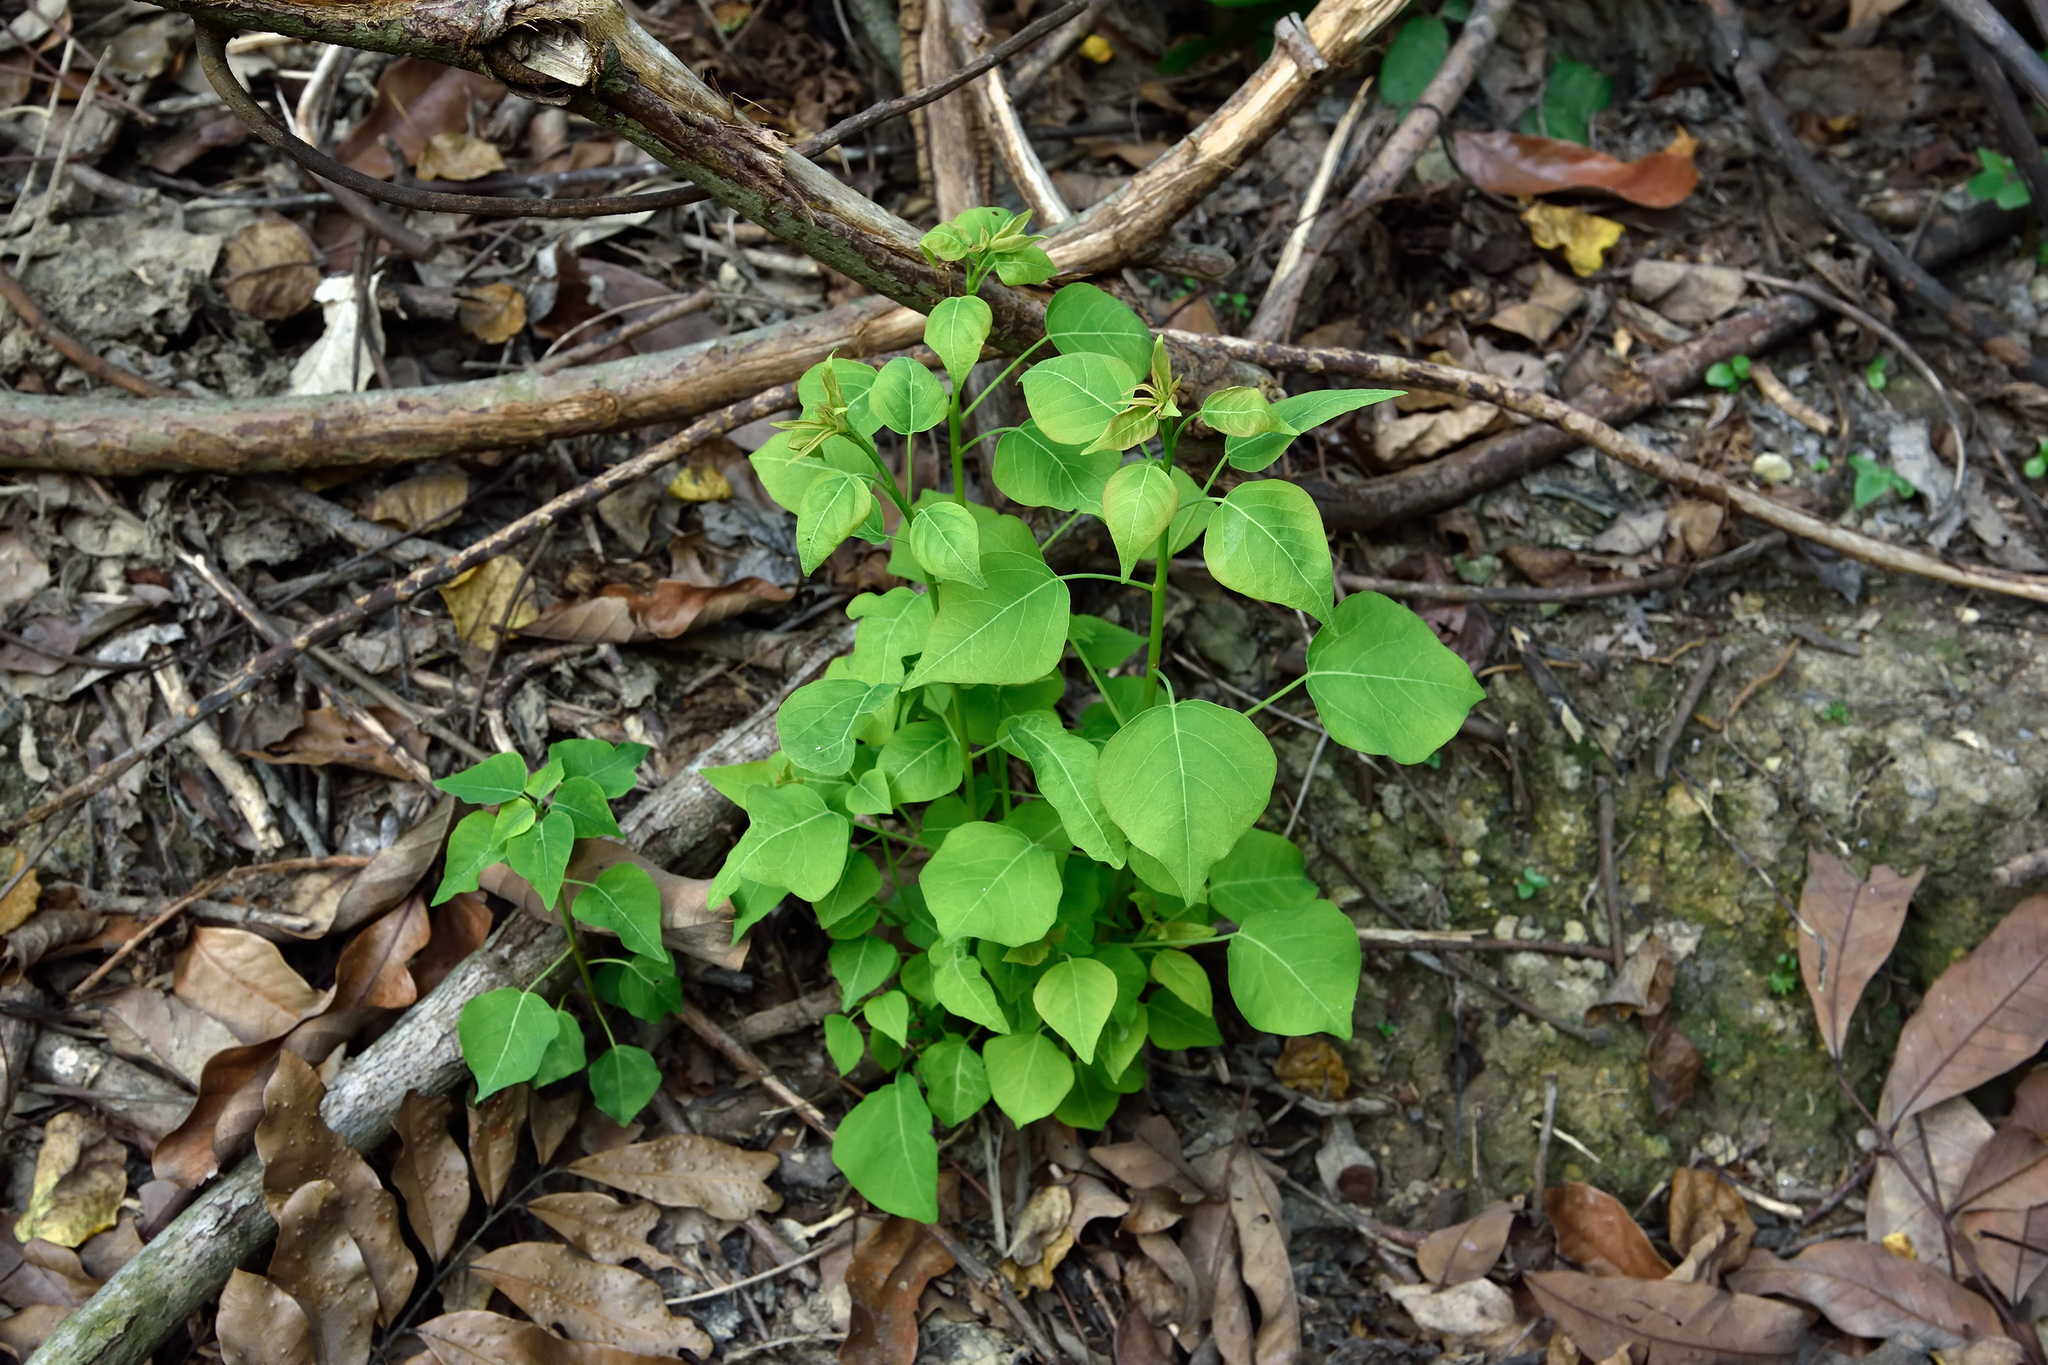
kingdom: Plantae
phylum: Tracheophyta
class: Magnoliopsida
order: Malpighiales
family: Euphorbiaceae
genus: Triadica
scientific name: Triadica sebifera
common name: Chinese tallow
